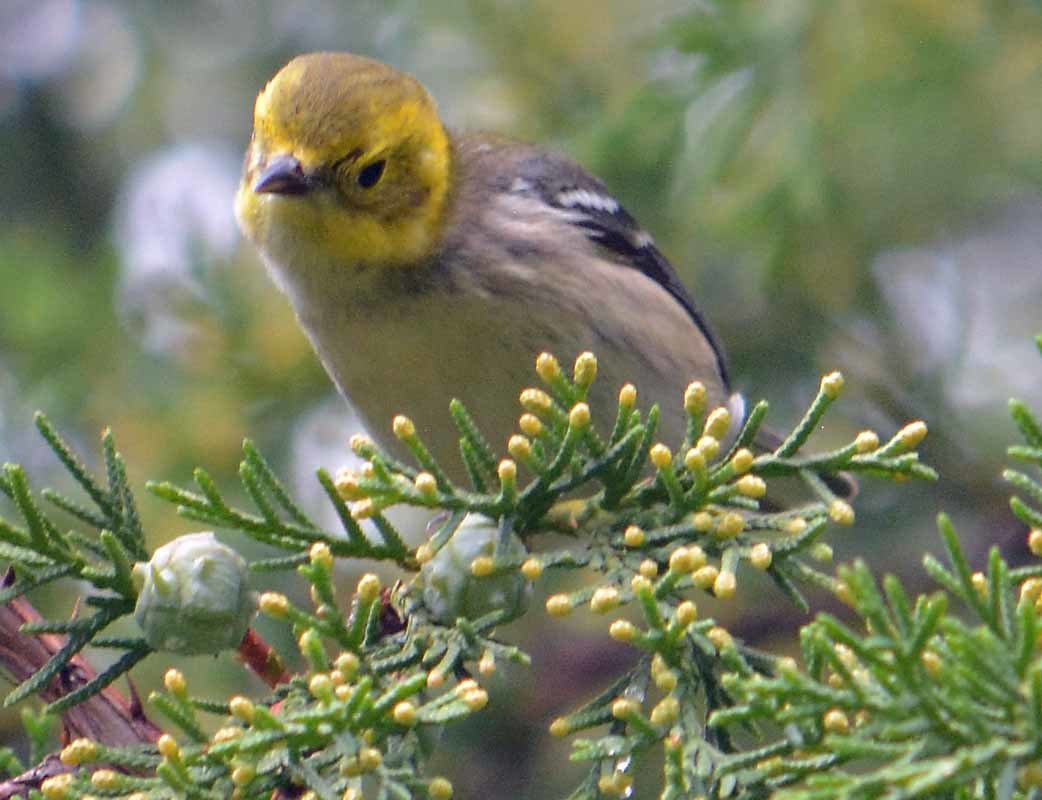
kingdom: Animalia
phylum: Chordata
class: Aves
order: Passeriformes
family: Parulidae
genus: Setophaga
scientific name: Setophaga occidentalis
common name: Hermit warbler
